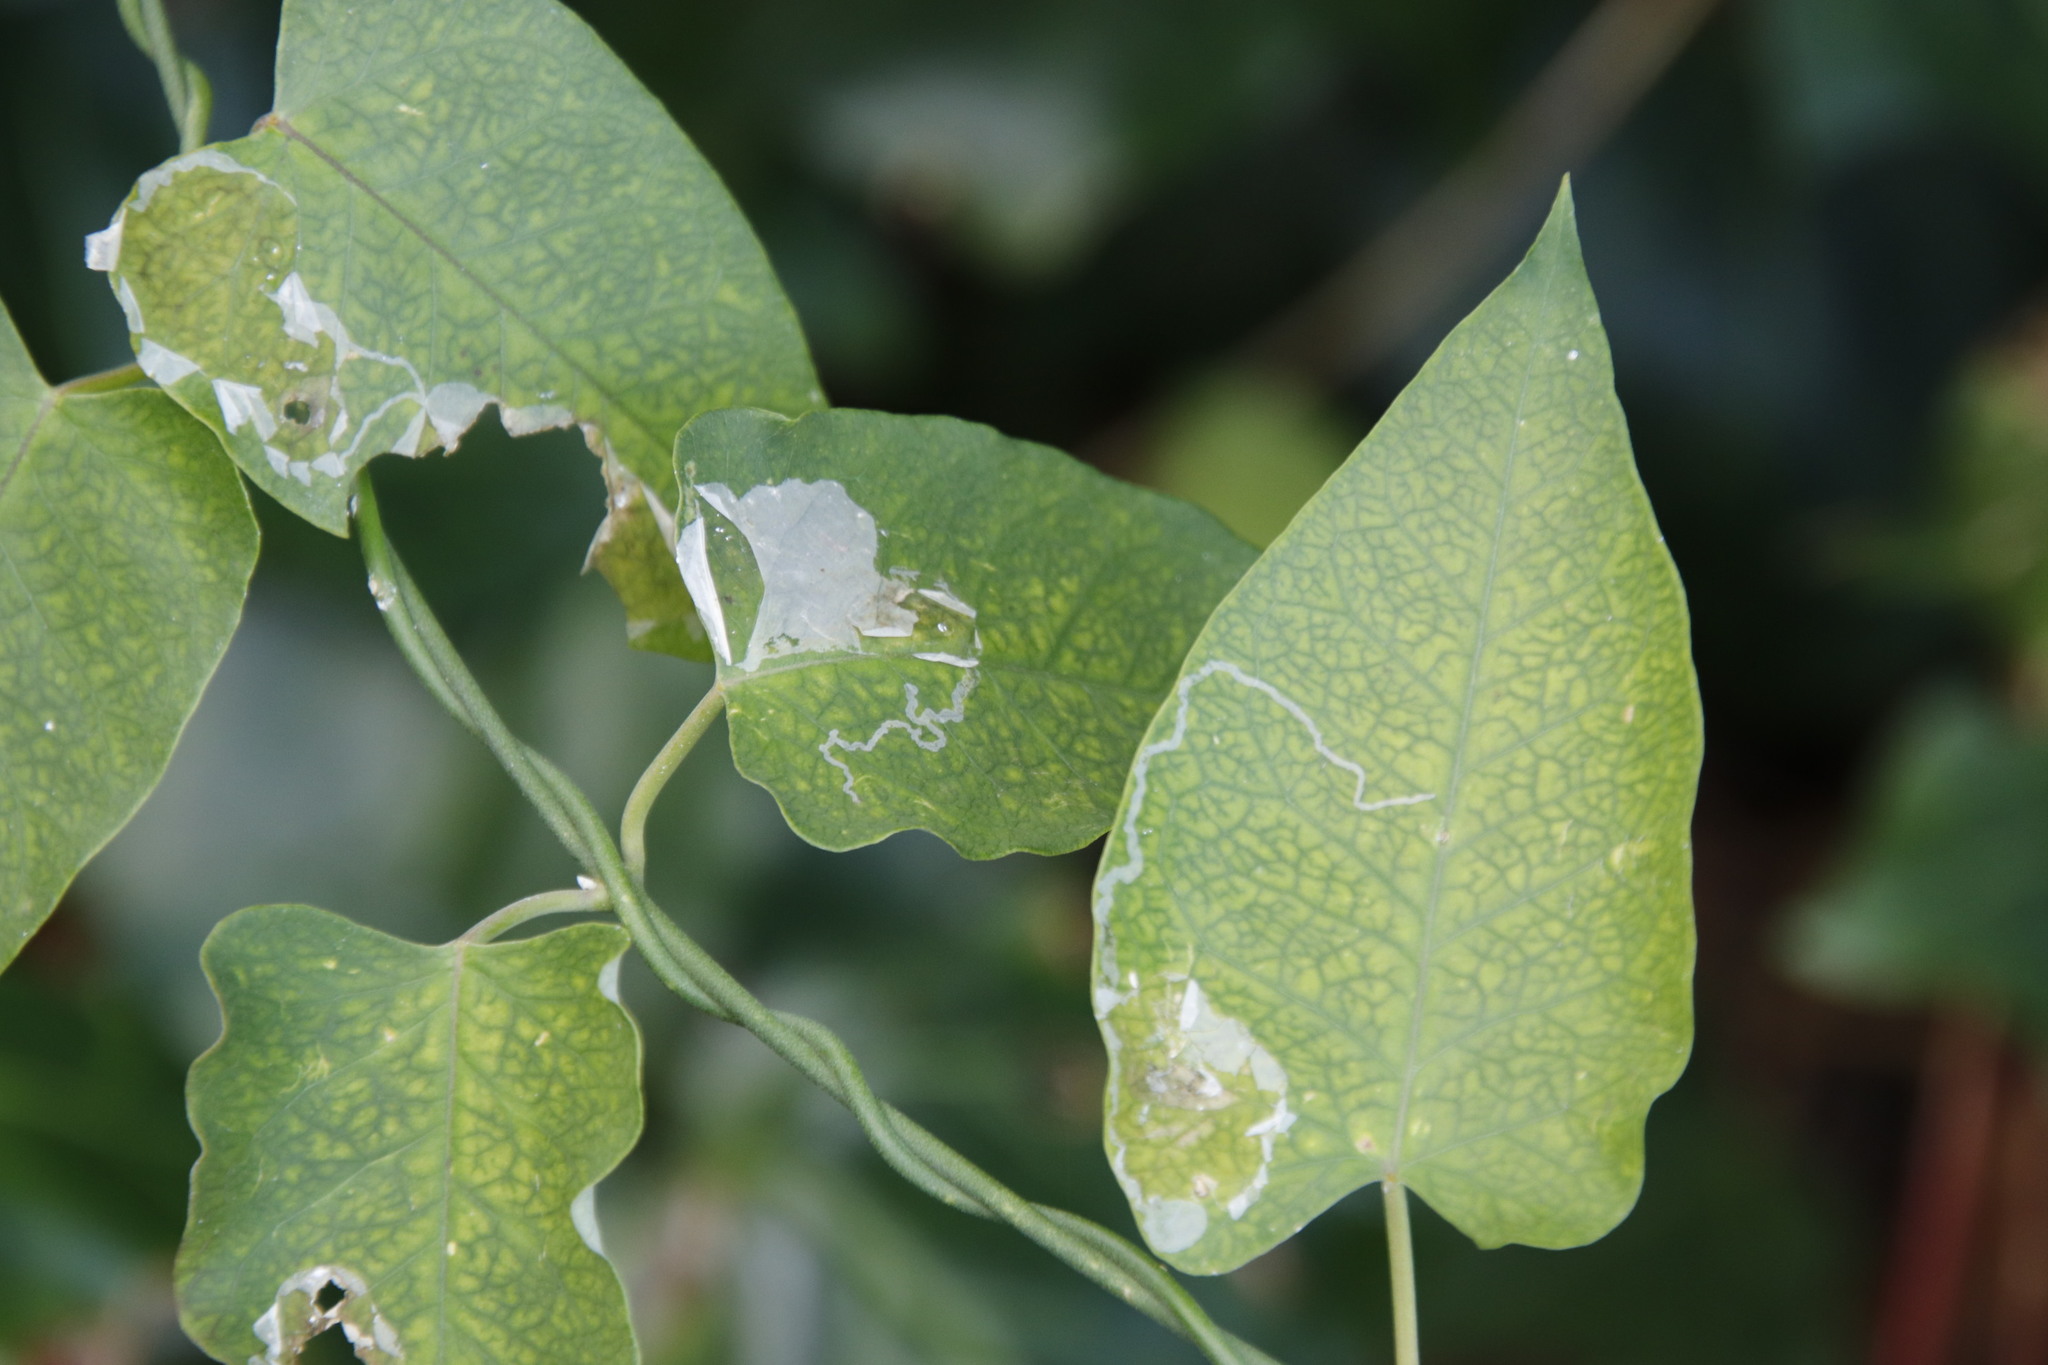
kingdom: Plantae
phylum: Tracheophyta
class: Magnoliopsida
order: Gentianales
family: Apocynaceae
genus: Araujia
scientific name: Araujia sericifera
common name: White bladderflower
